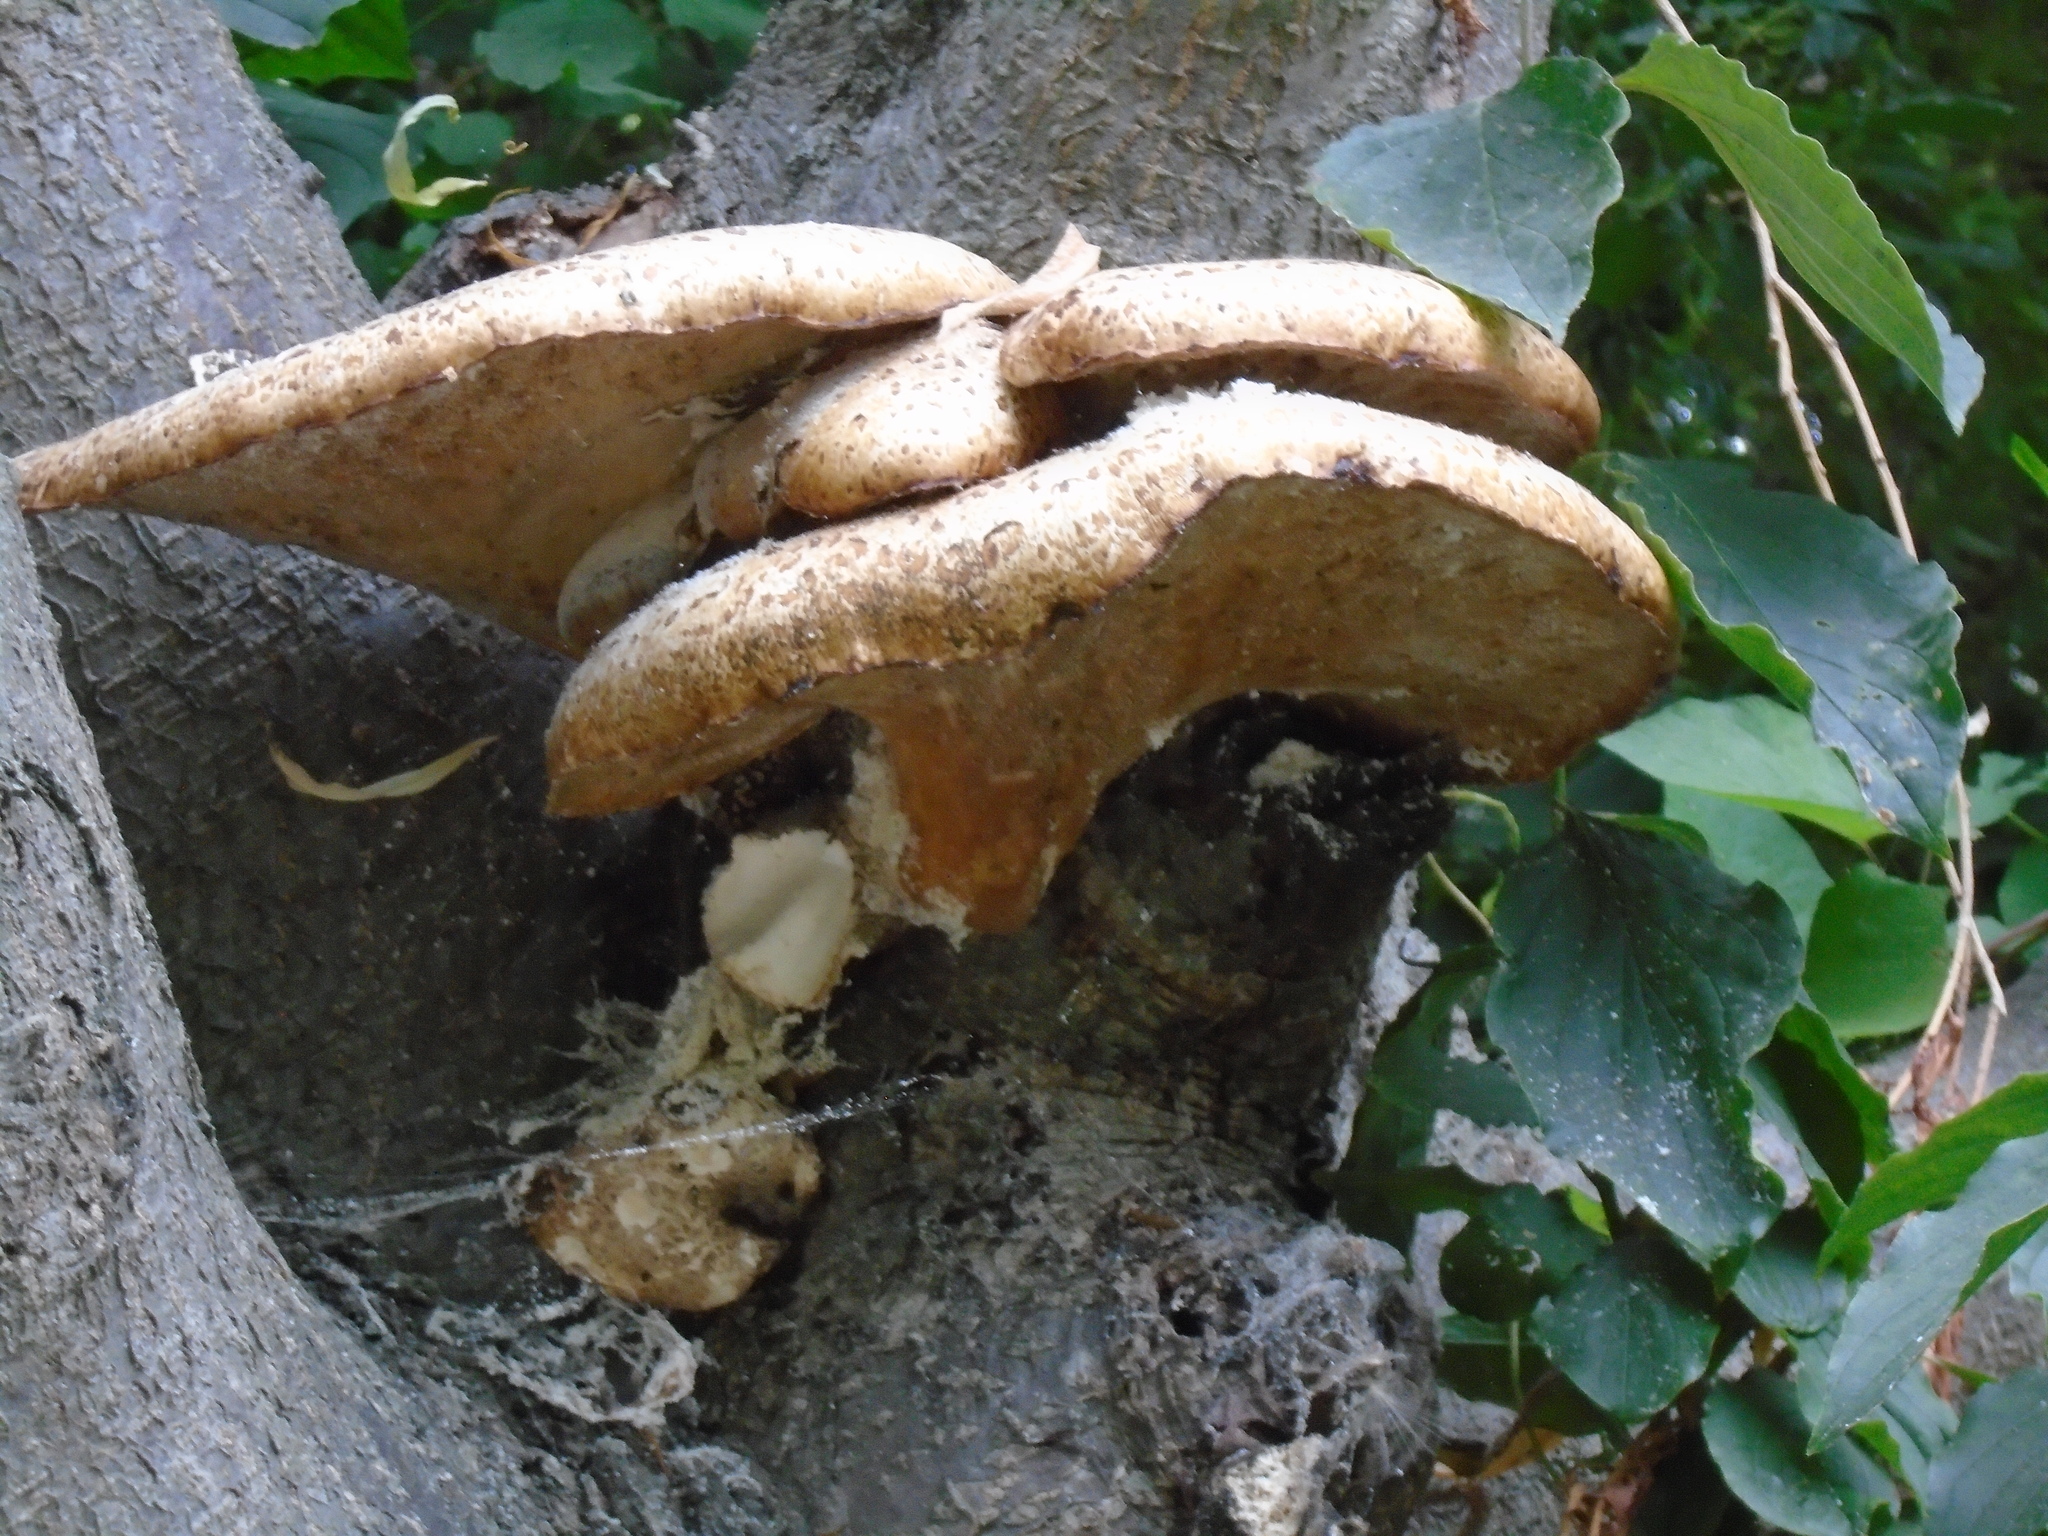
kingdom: Fungi
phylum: Basidiomycota
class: Agaricomycetes
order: Polyporales
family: Polyporaceae
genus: Cerioporus
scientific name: Cerioporus squamosus
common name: Dryad's saddle
